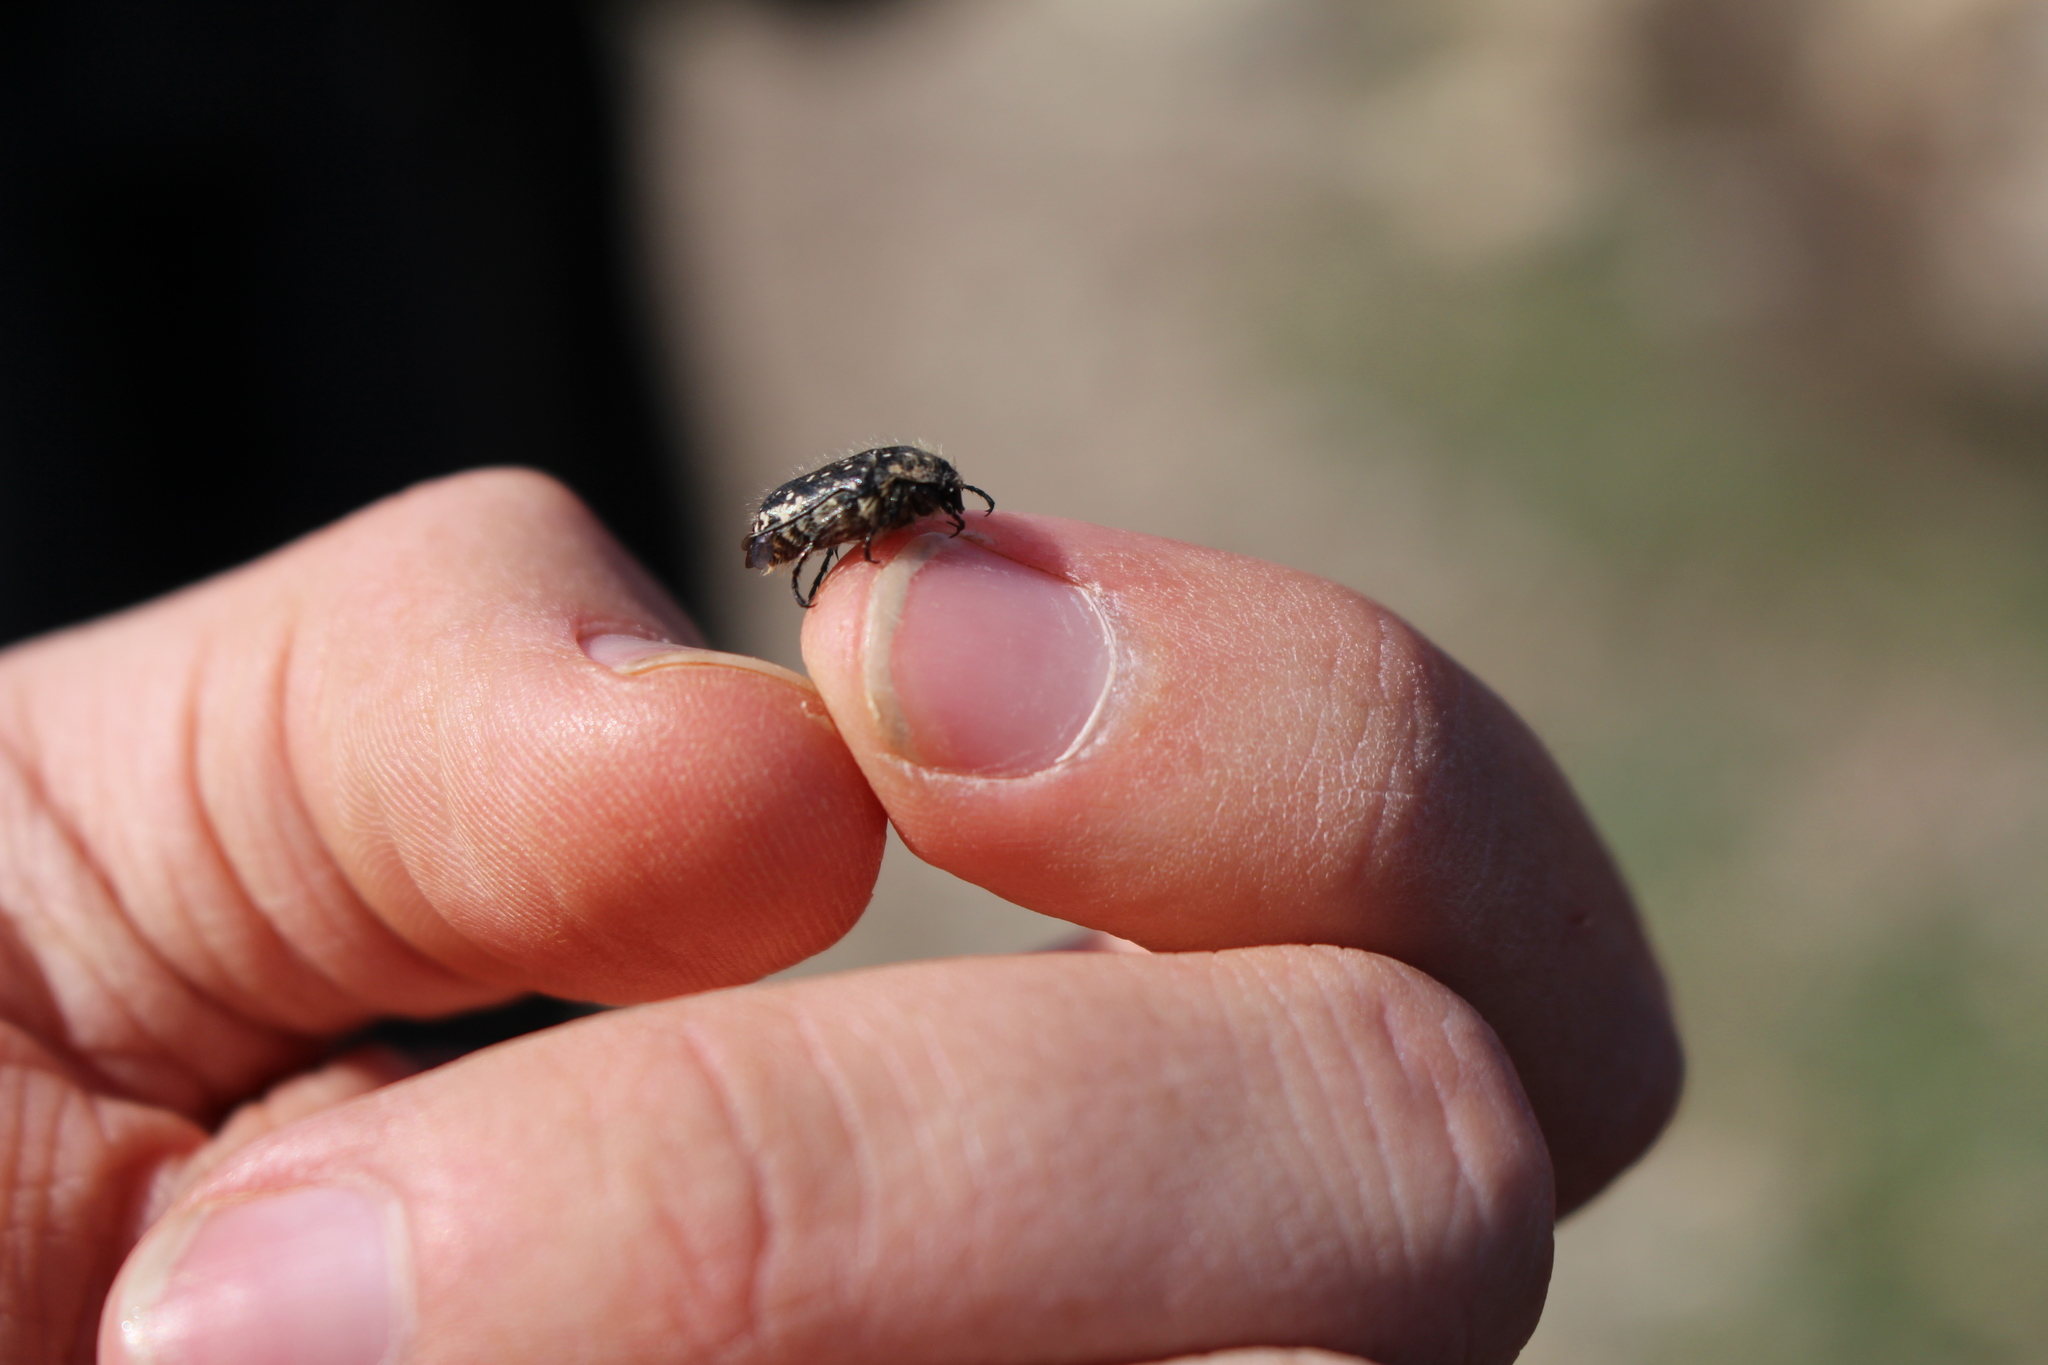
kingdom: Animalia
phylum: Arthropoda
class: Insecta
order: Coleoptera
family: Scarabaeidae
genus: Oxythyrea
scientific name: Oxythyrea funesta
